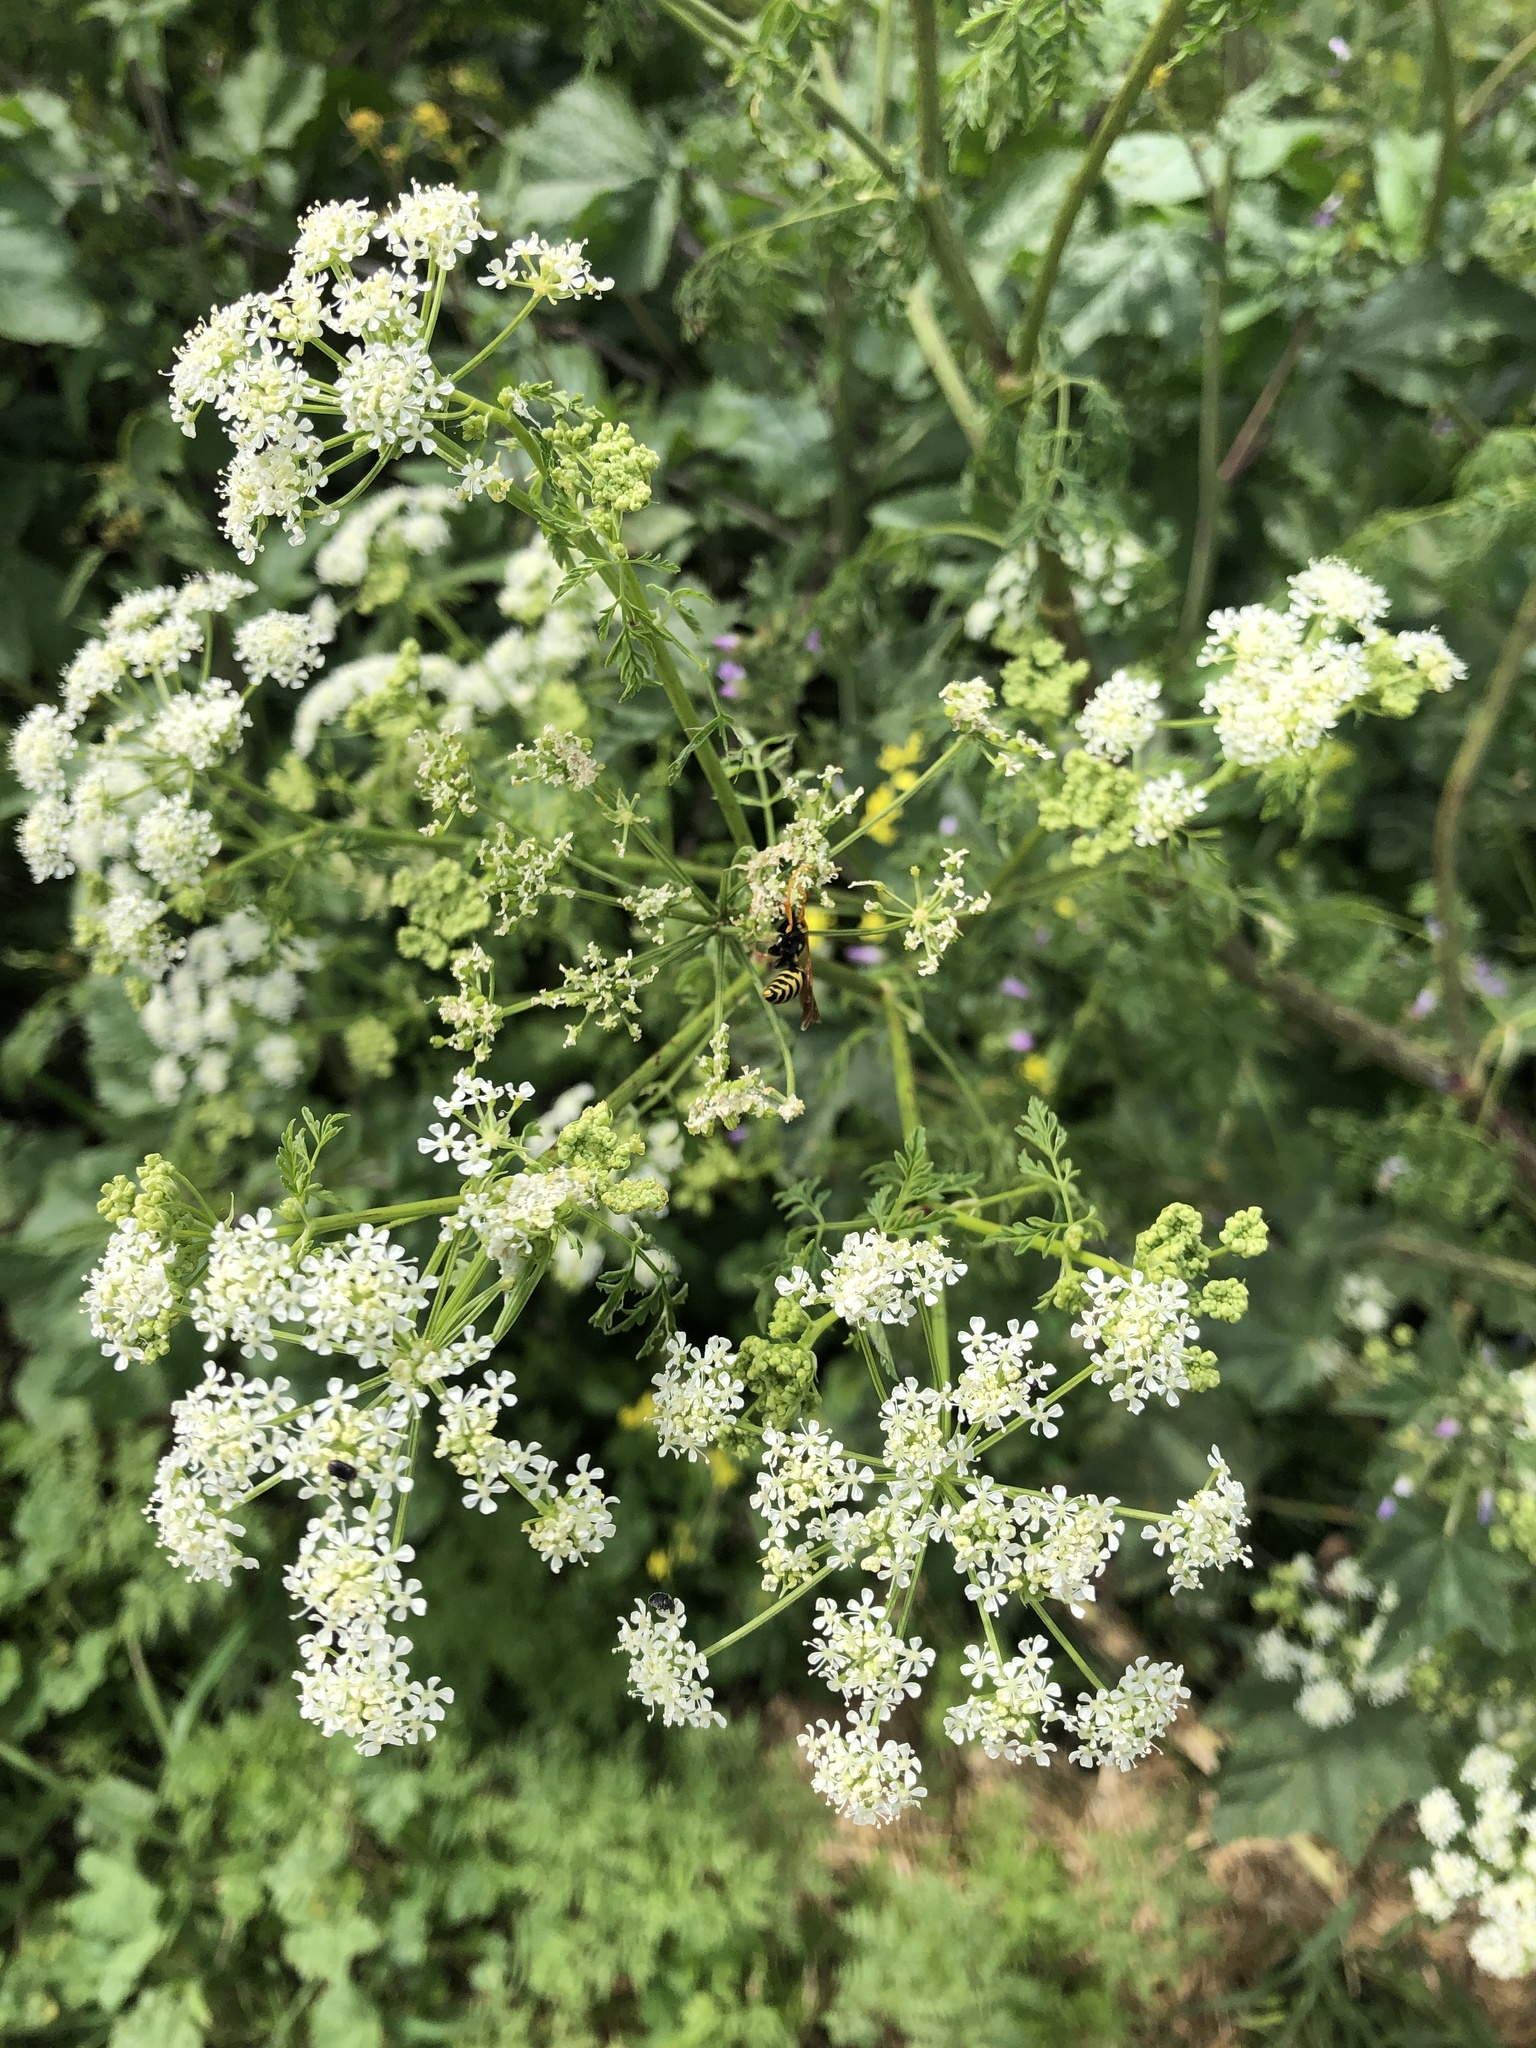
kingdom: Plantae
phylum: Tracheophyta
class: Magnoliopsida
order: Apiales
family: Apiaceae
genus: Conium
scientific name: Conium maculatum
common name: Hemlock
